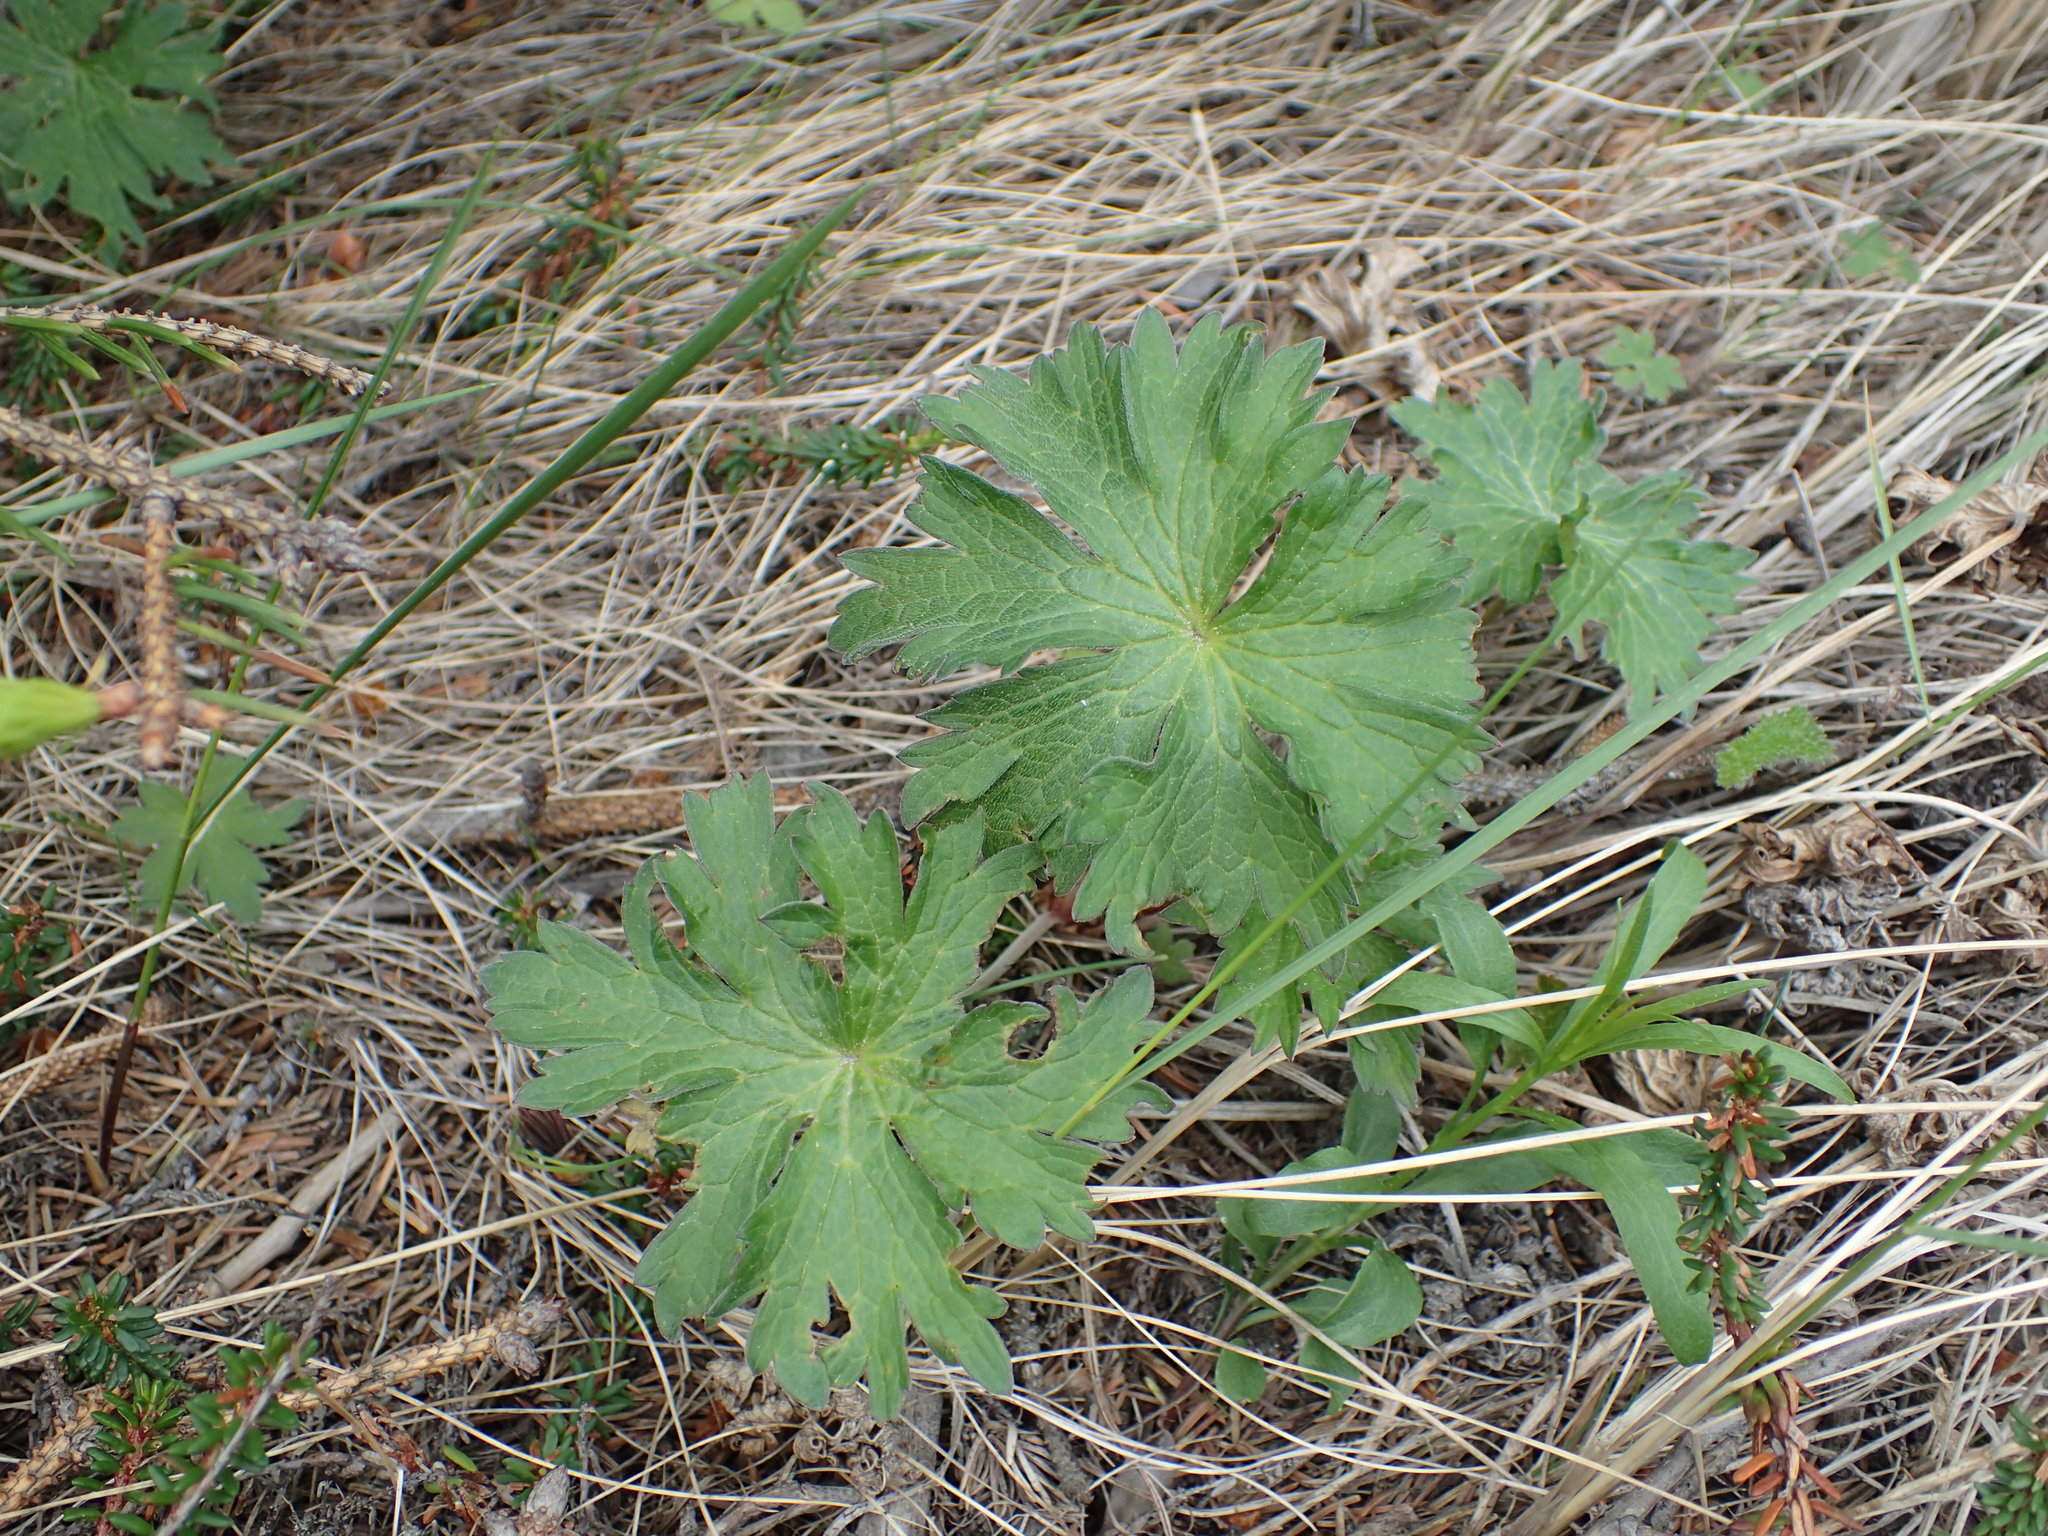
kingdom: Plantae
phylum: Tracheophyta
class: Magnoliopsida
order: Geraniales
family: Geraniaceae
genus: Geranium
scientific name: Geranium erianthum
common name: Northern crane's-bill
